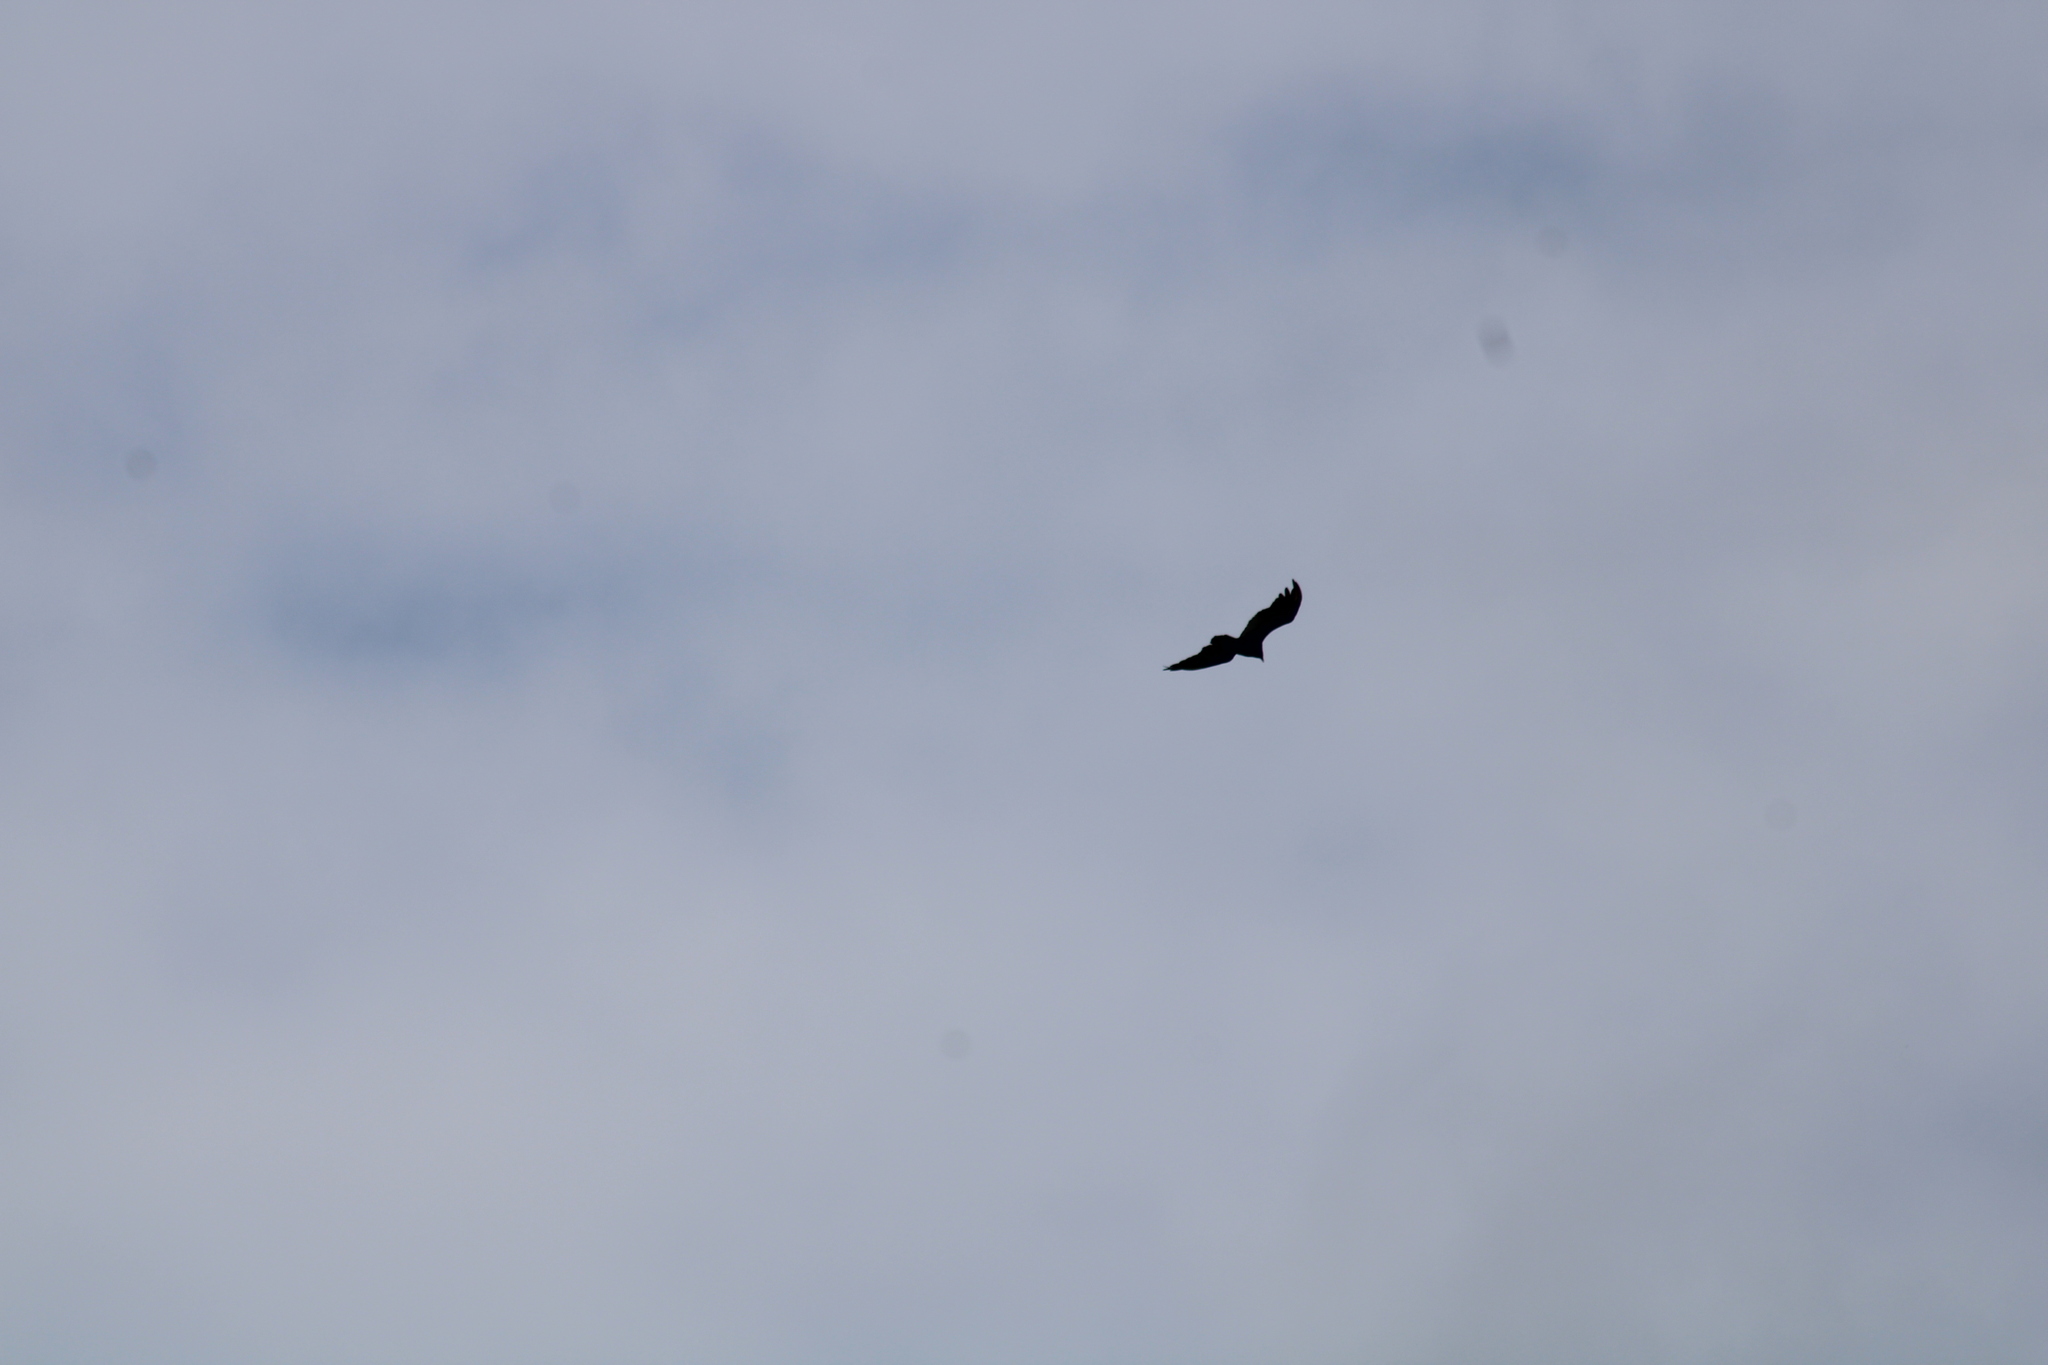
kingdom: Animalia
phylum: Chordata
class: Aves
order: Accipitriformes
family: Cathartidae
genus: Cathartes
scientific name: Cathartes aura
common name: Turkey vulture
